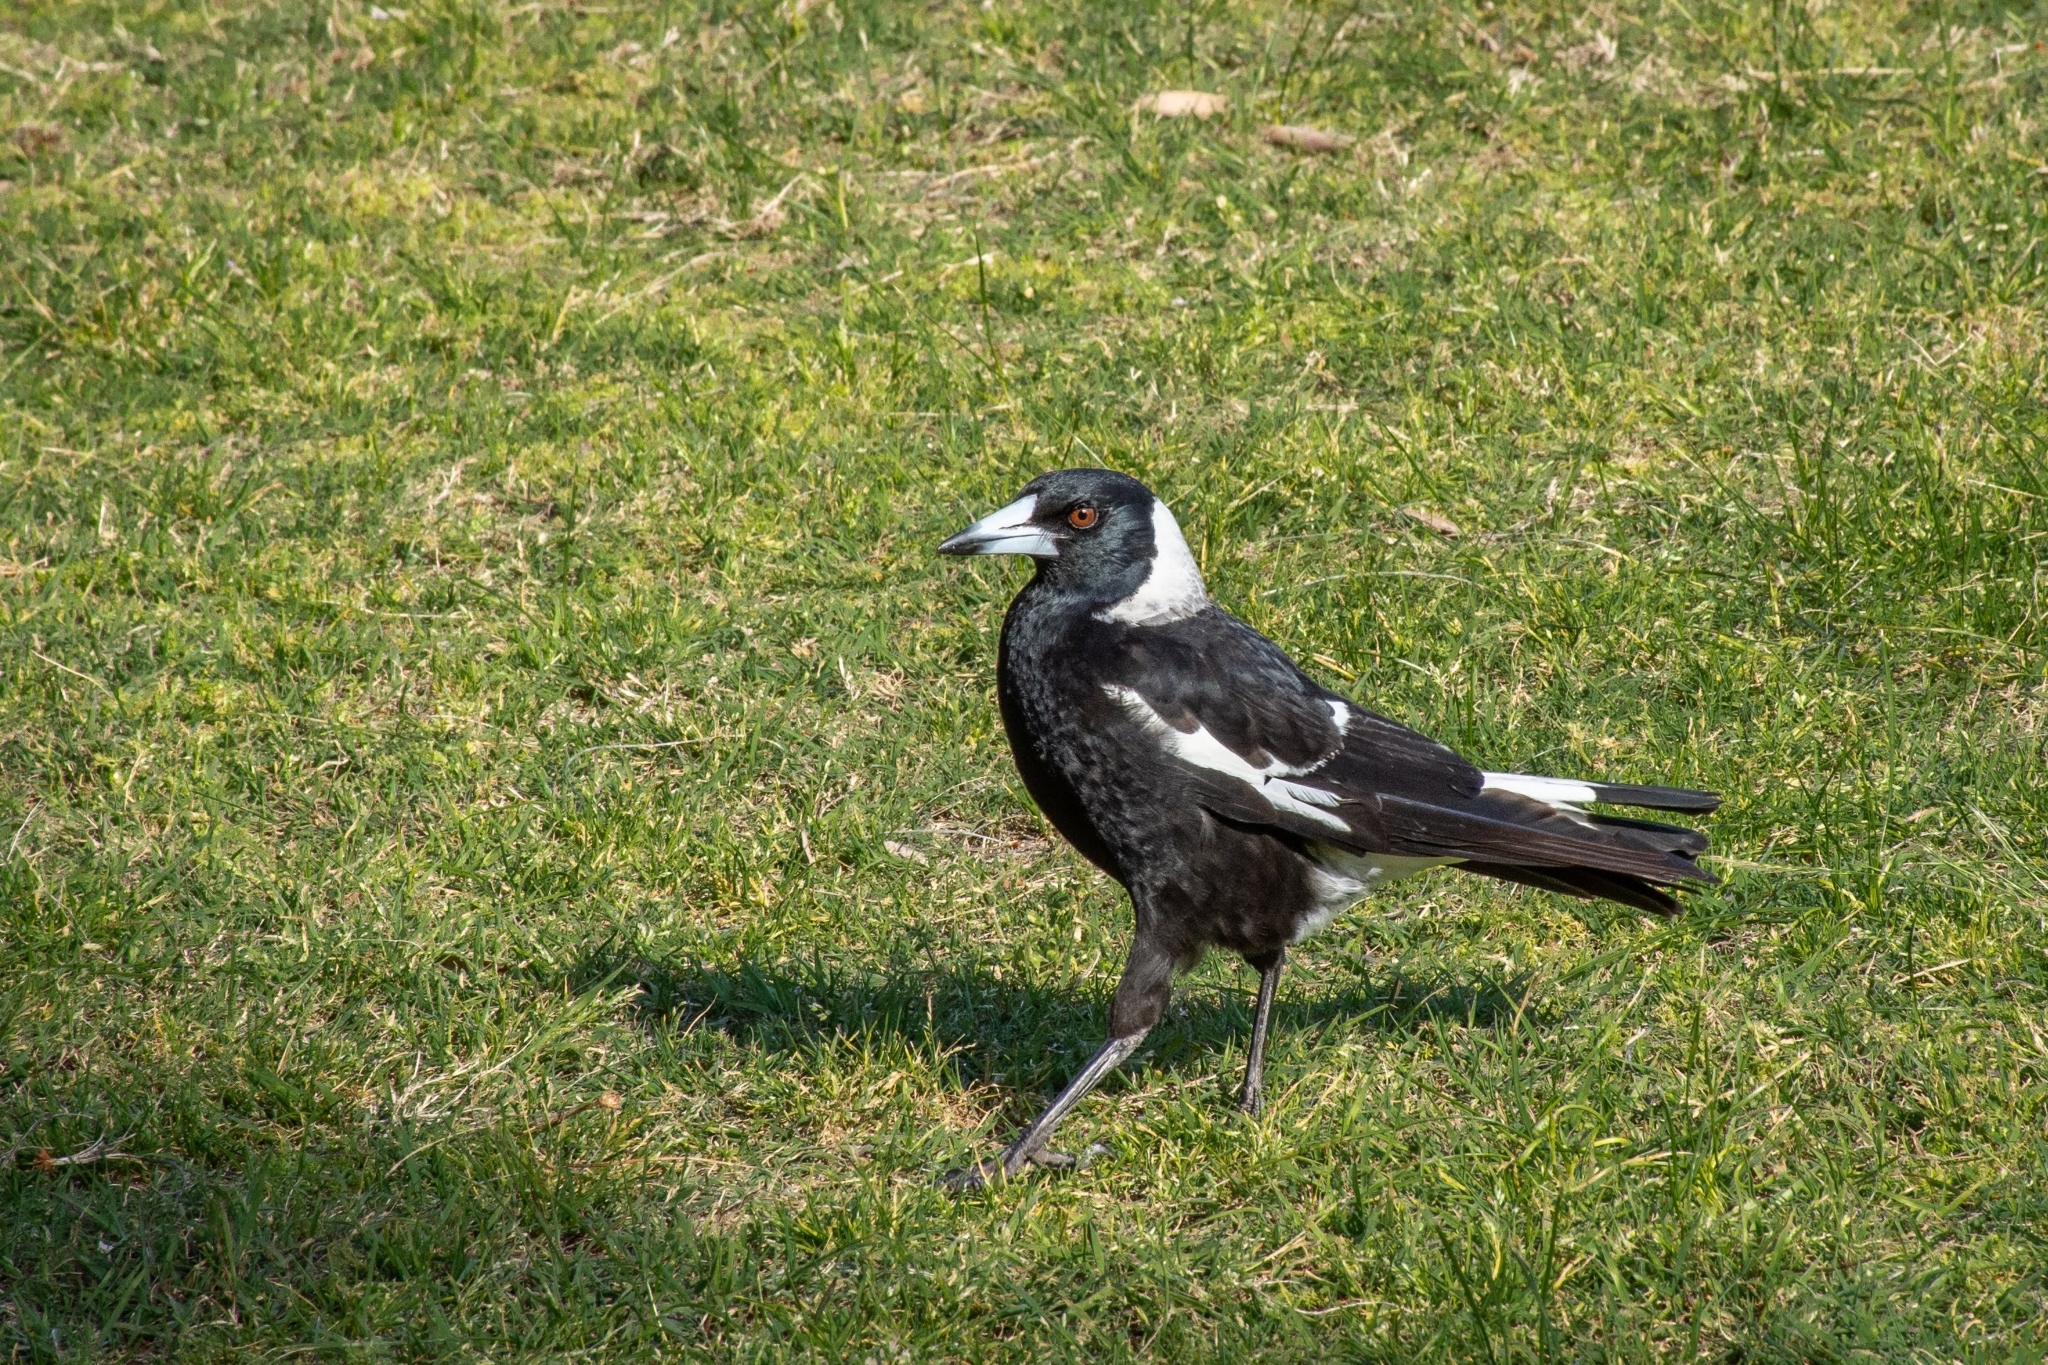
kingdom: Animalia
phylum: Chordata
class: Aves
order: Passeriformes
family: Cracticidae
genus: Gymnorhina
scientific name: Gymnorhina tibicen
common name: Australian magpie
